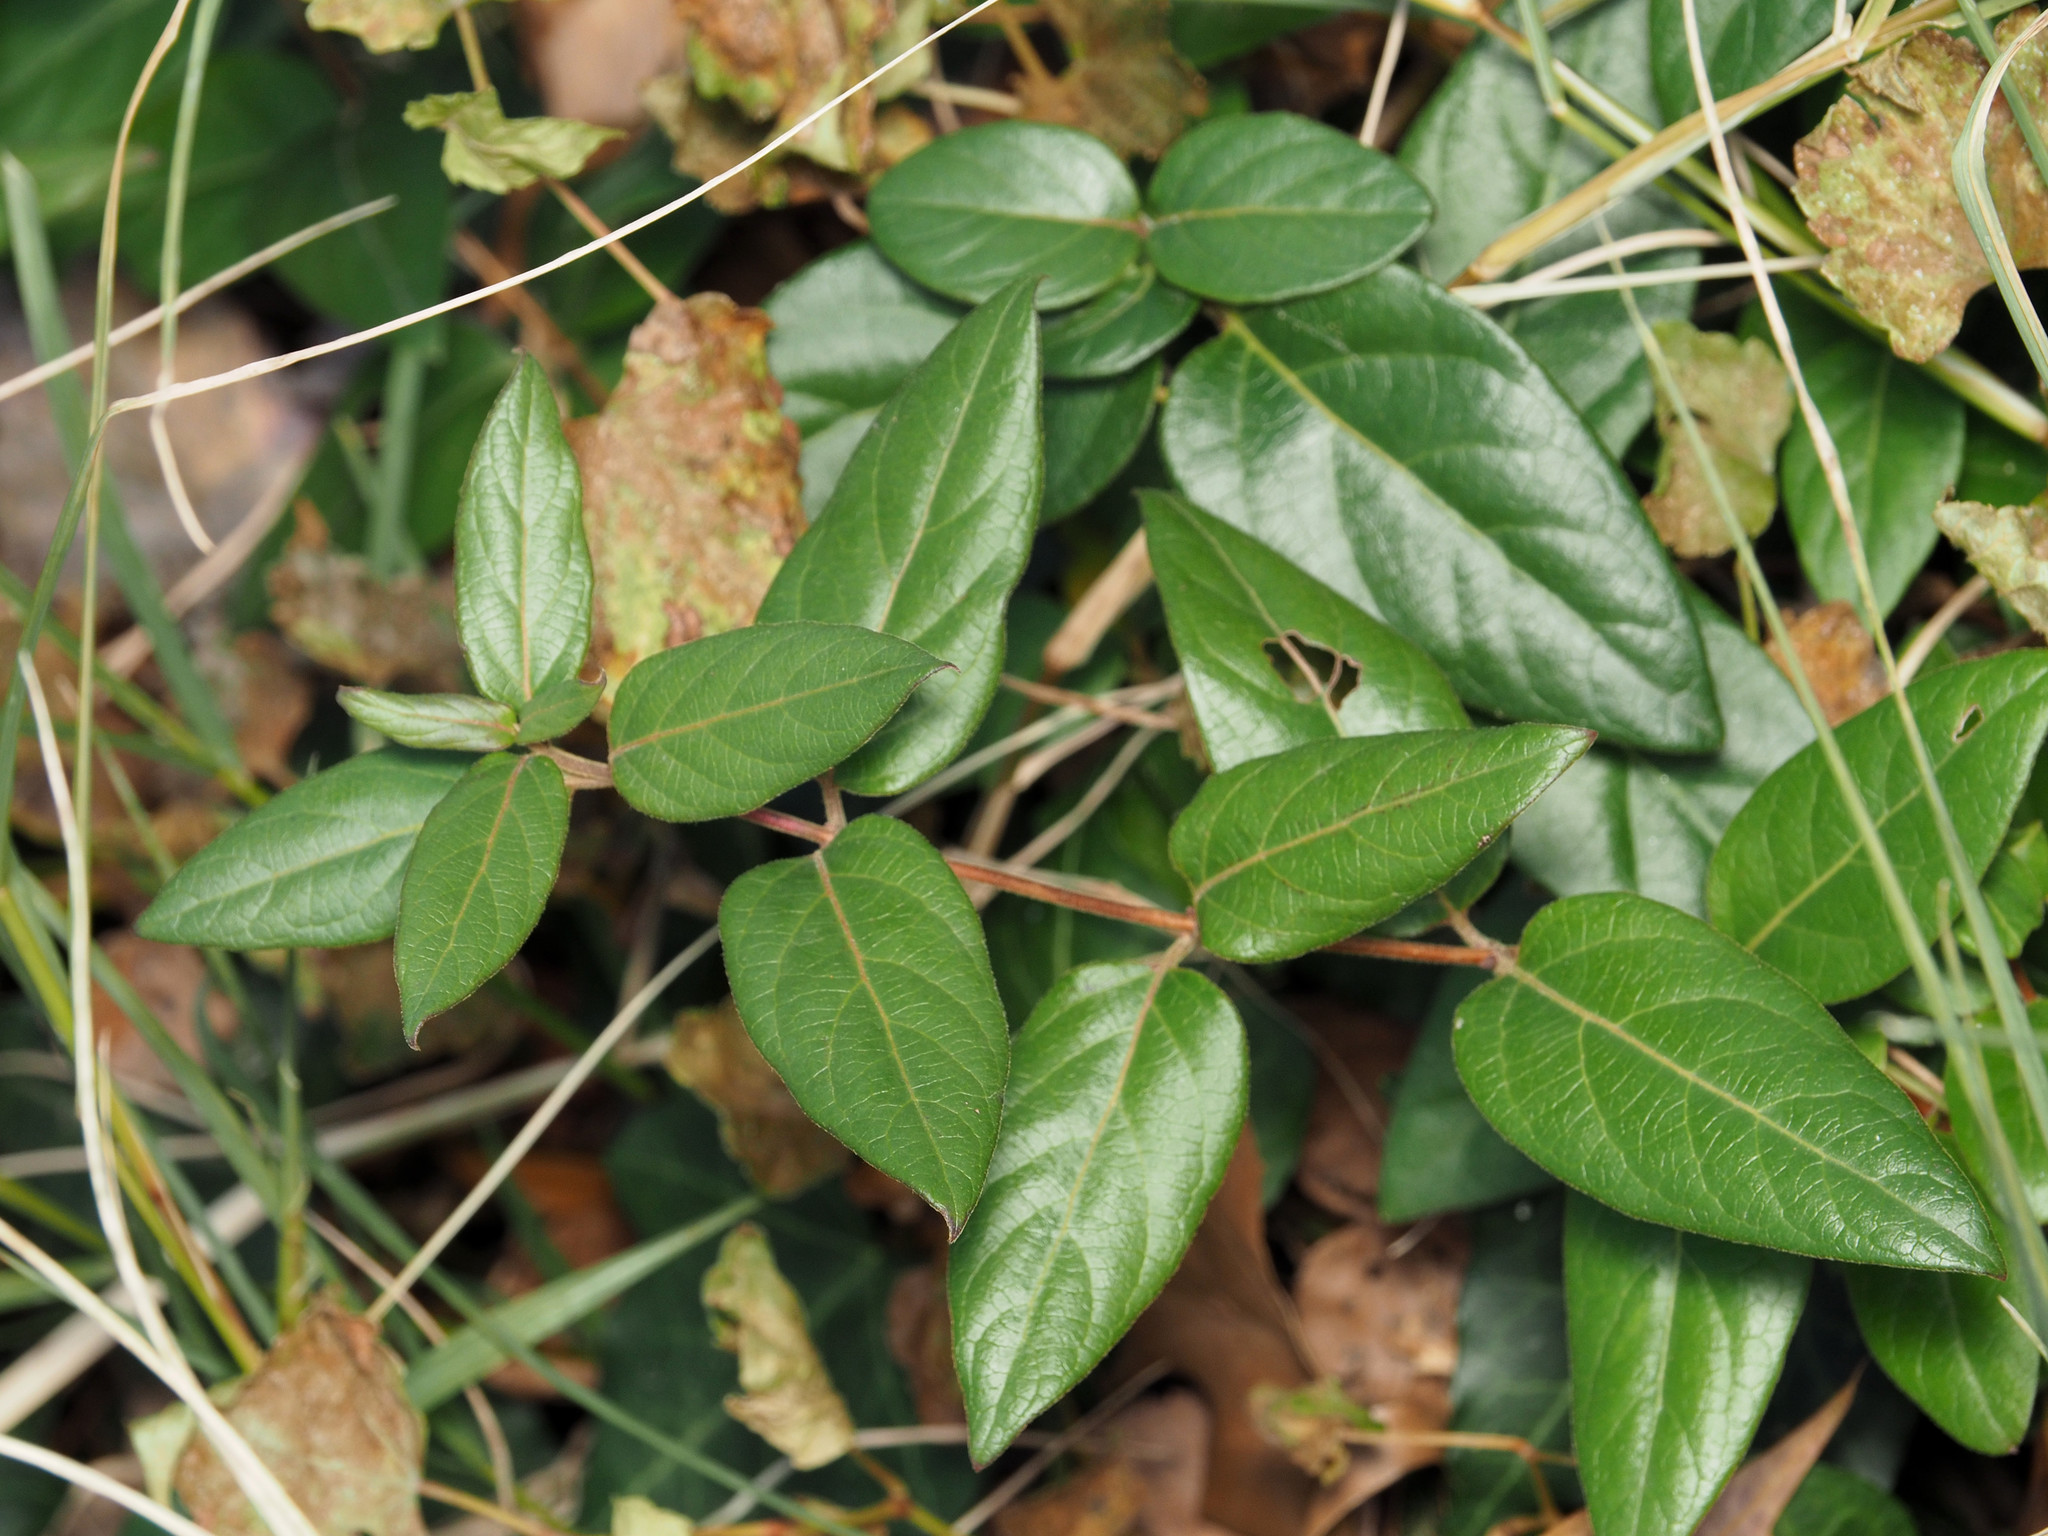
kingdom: Plantae
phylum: Tracheophyta
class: Magnoliopsida
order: Dipsacales
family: Caprifoliaceae
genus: Lonicera
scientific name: Lonicera japonica
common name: Japanese honeysuckle
